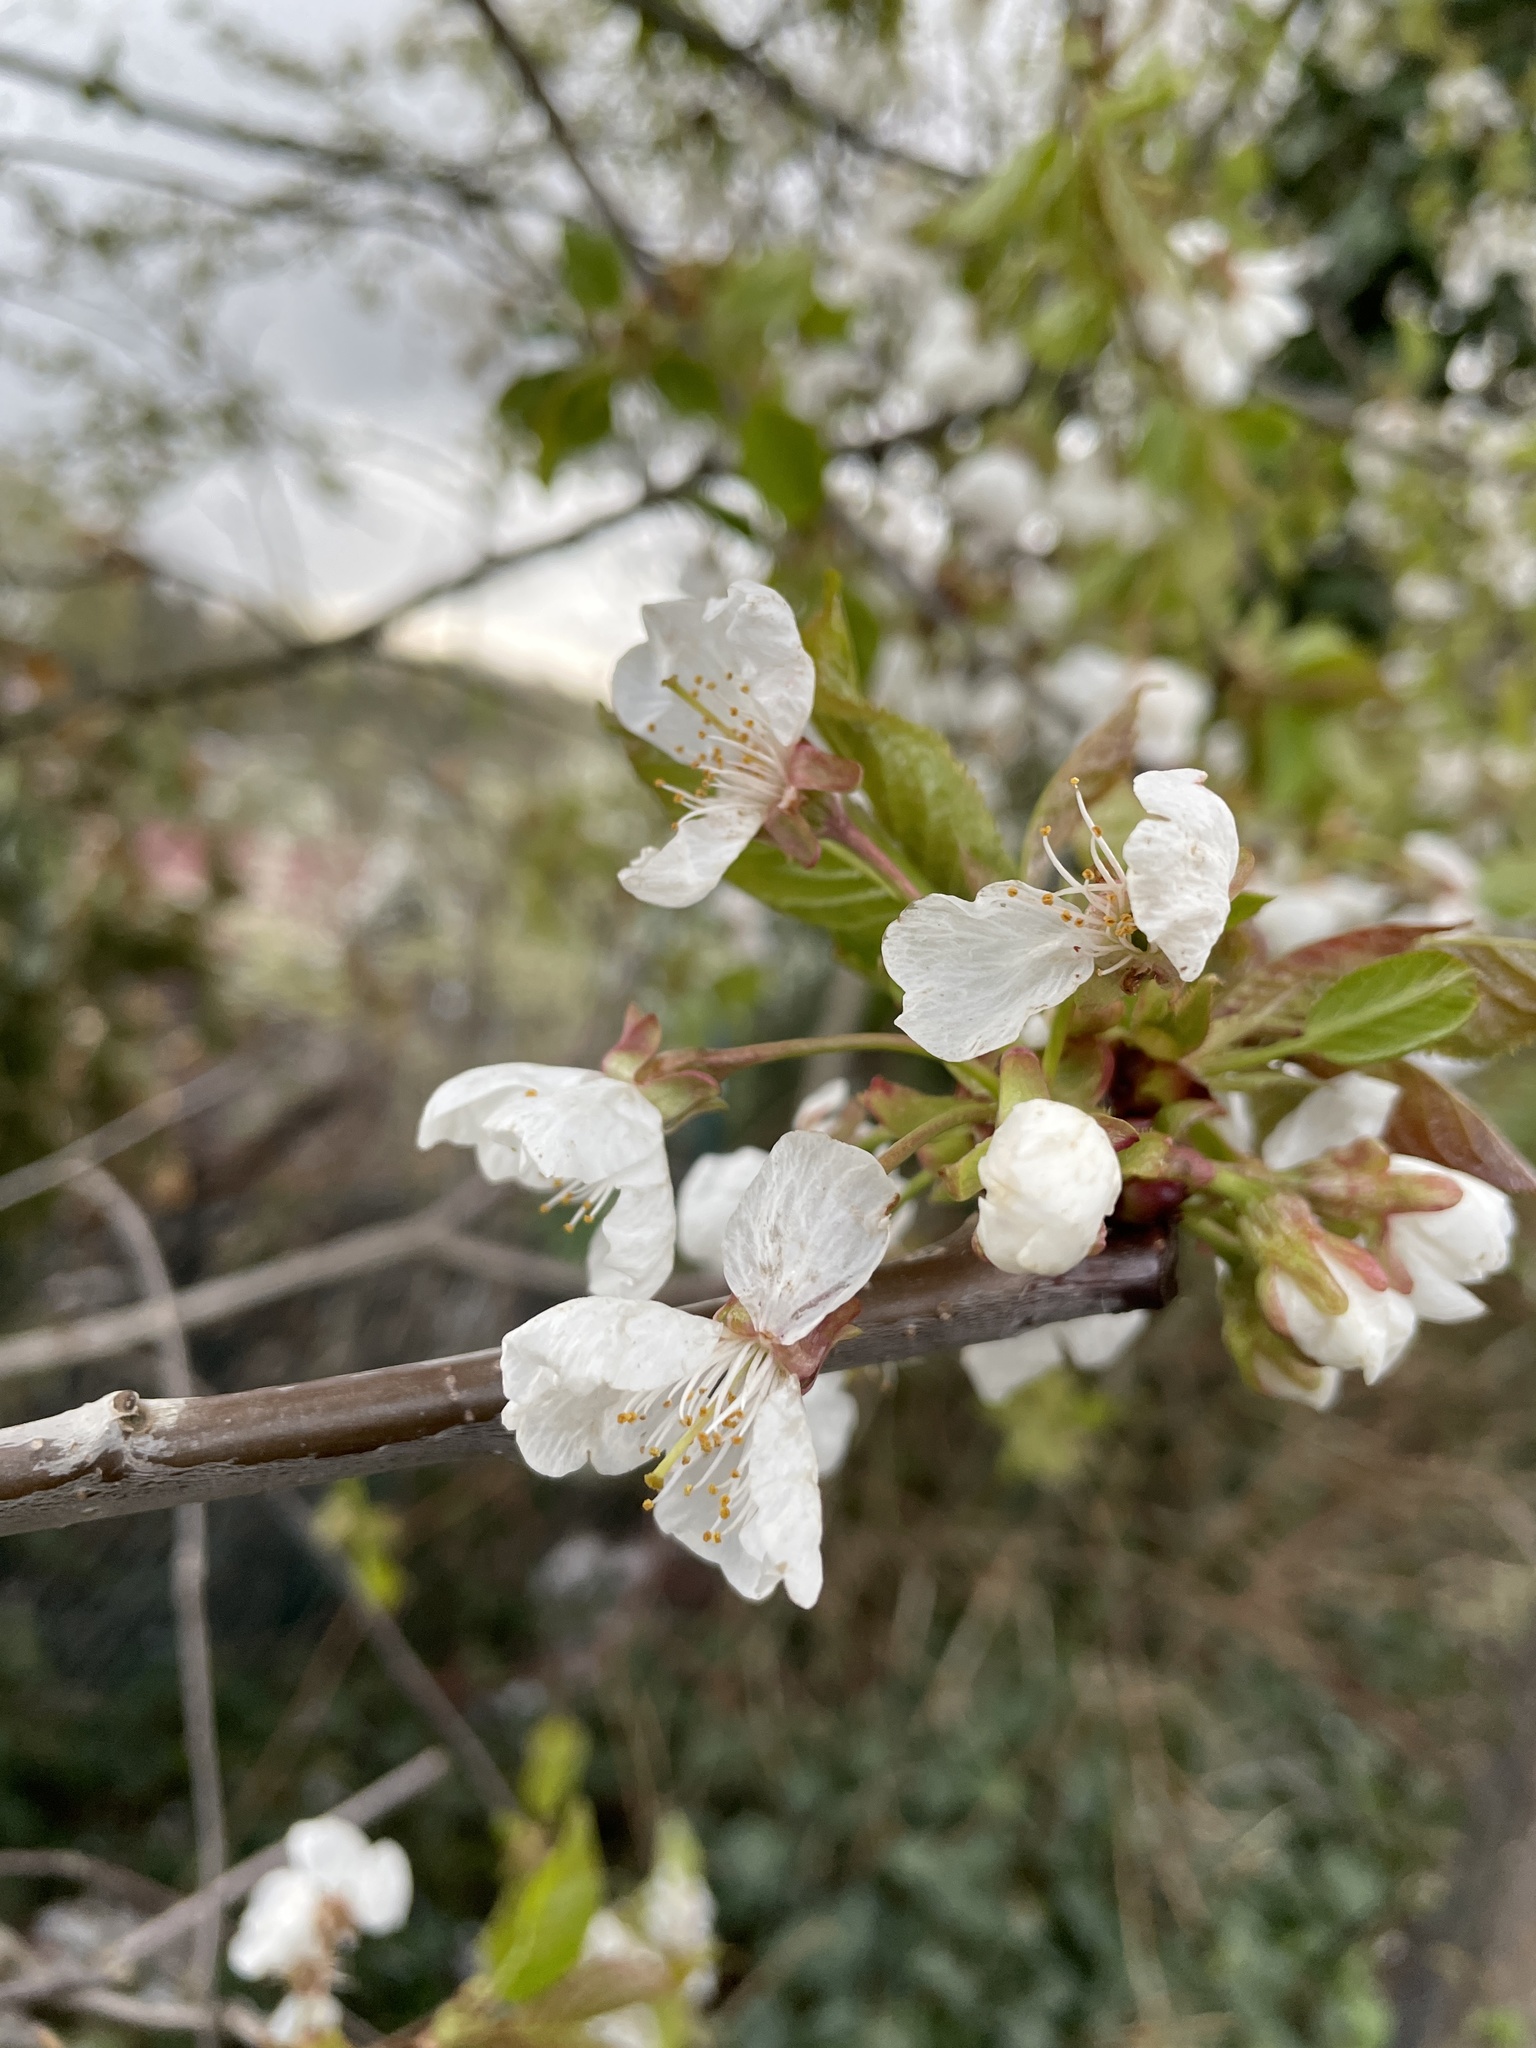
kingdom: Plantae
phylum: Tracheophyta
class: Magnoliopsida
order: Rosales
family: Rosaceae
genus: Prunus
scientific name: Prunus avium
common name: Sweet cherry
